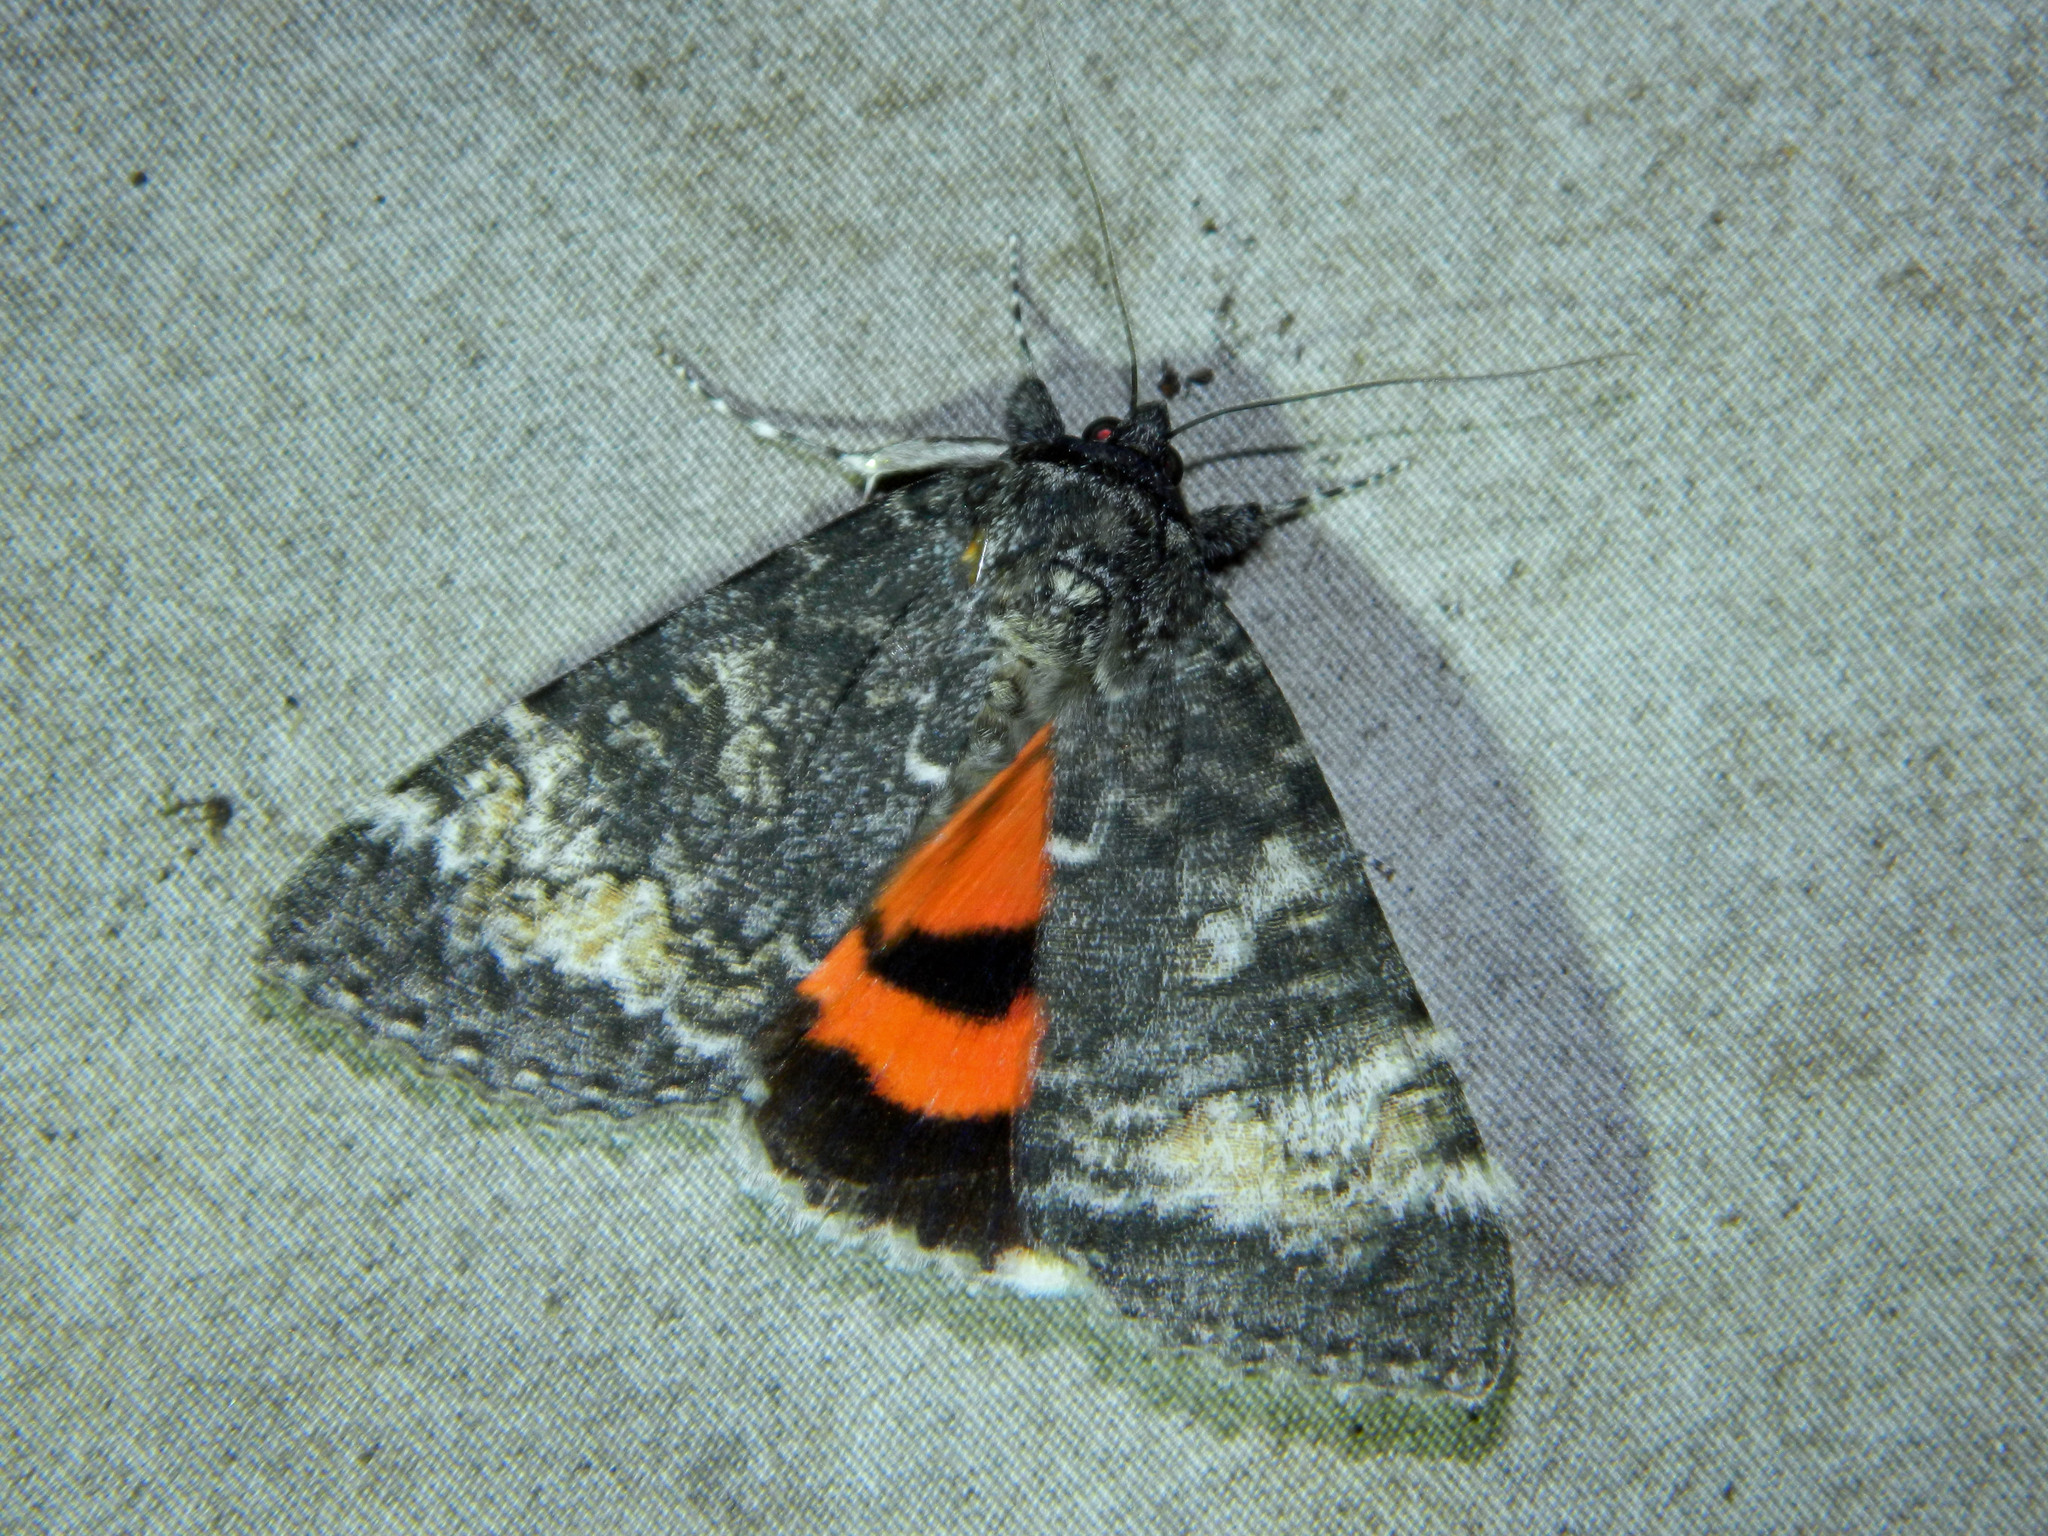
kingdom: Animalia
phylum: Arthropoda
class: Insecta
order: Lepidoptera
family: Erebidae
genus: Catocala
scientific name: Catocala briseis
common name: Briseis underwing
